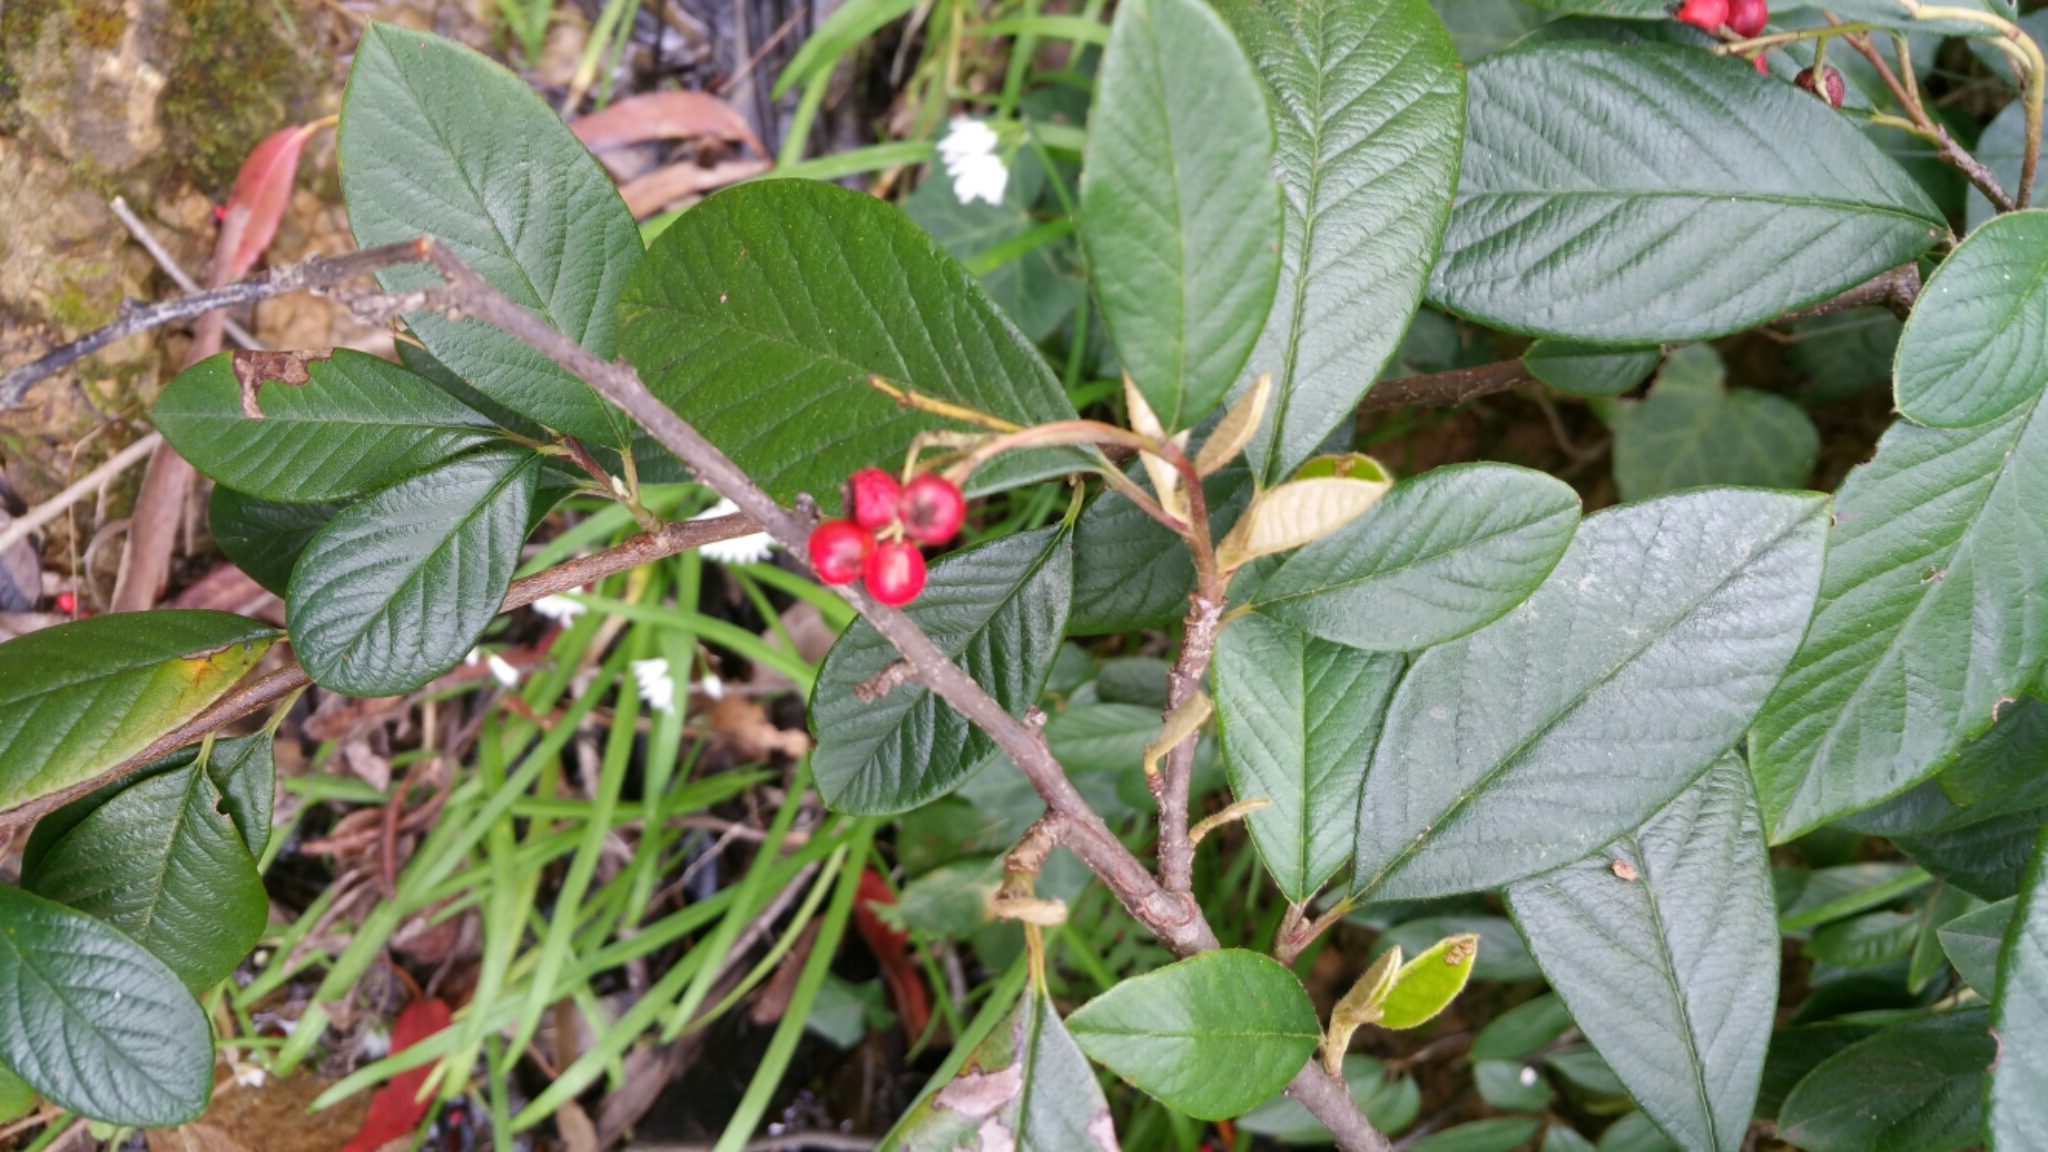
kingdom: Plantae
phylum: Tracheophyta
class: Magnoliopsida
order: Rosales
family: Rosaceae
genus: Cotoneaster
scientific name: Cotoneaster coriaceus
